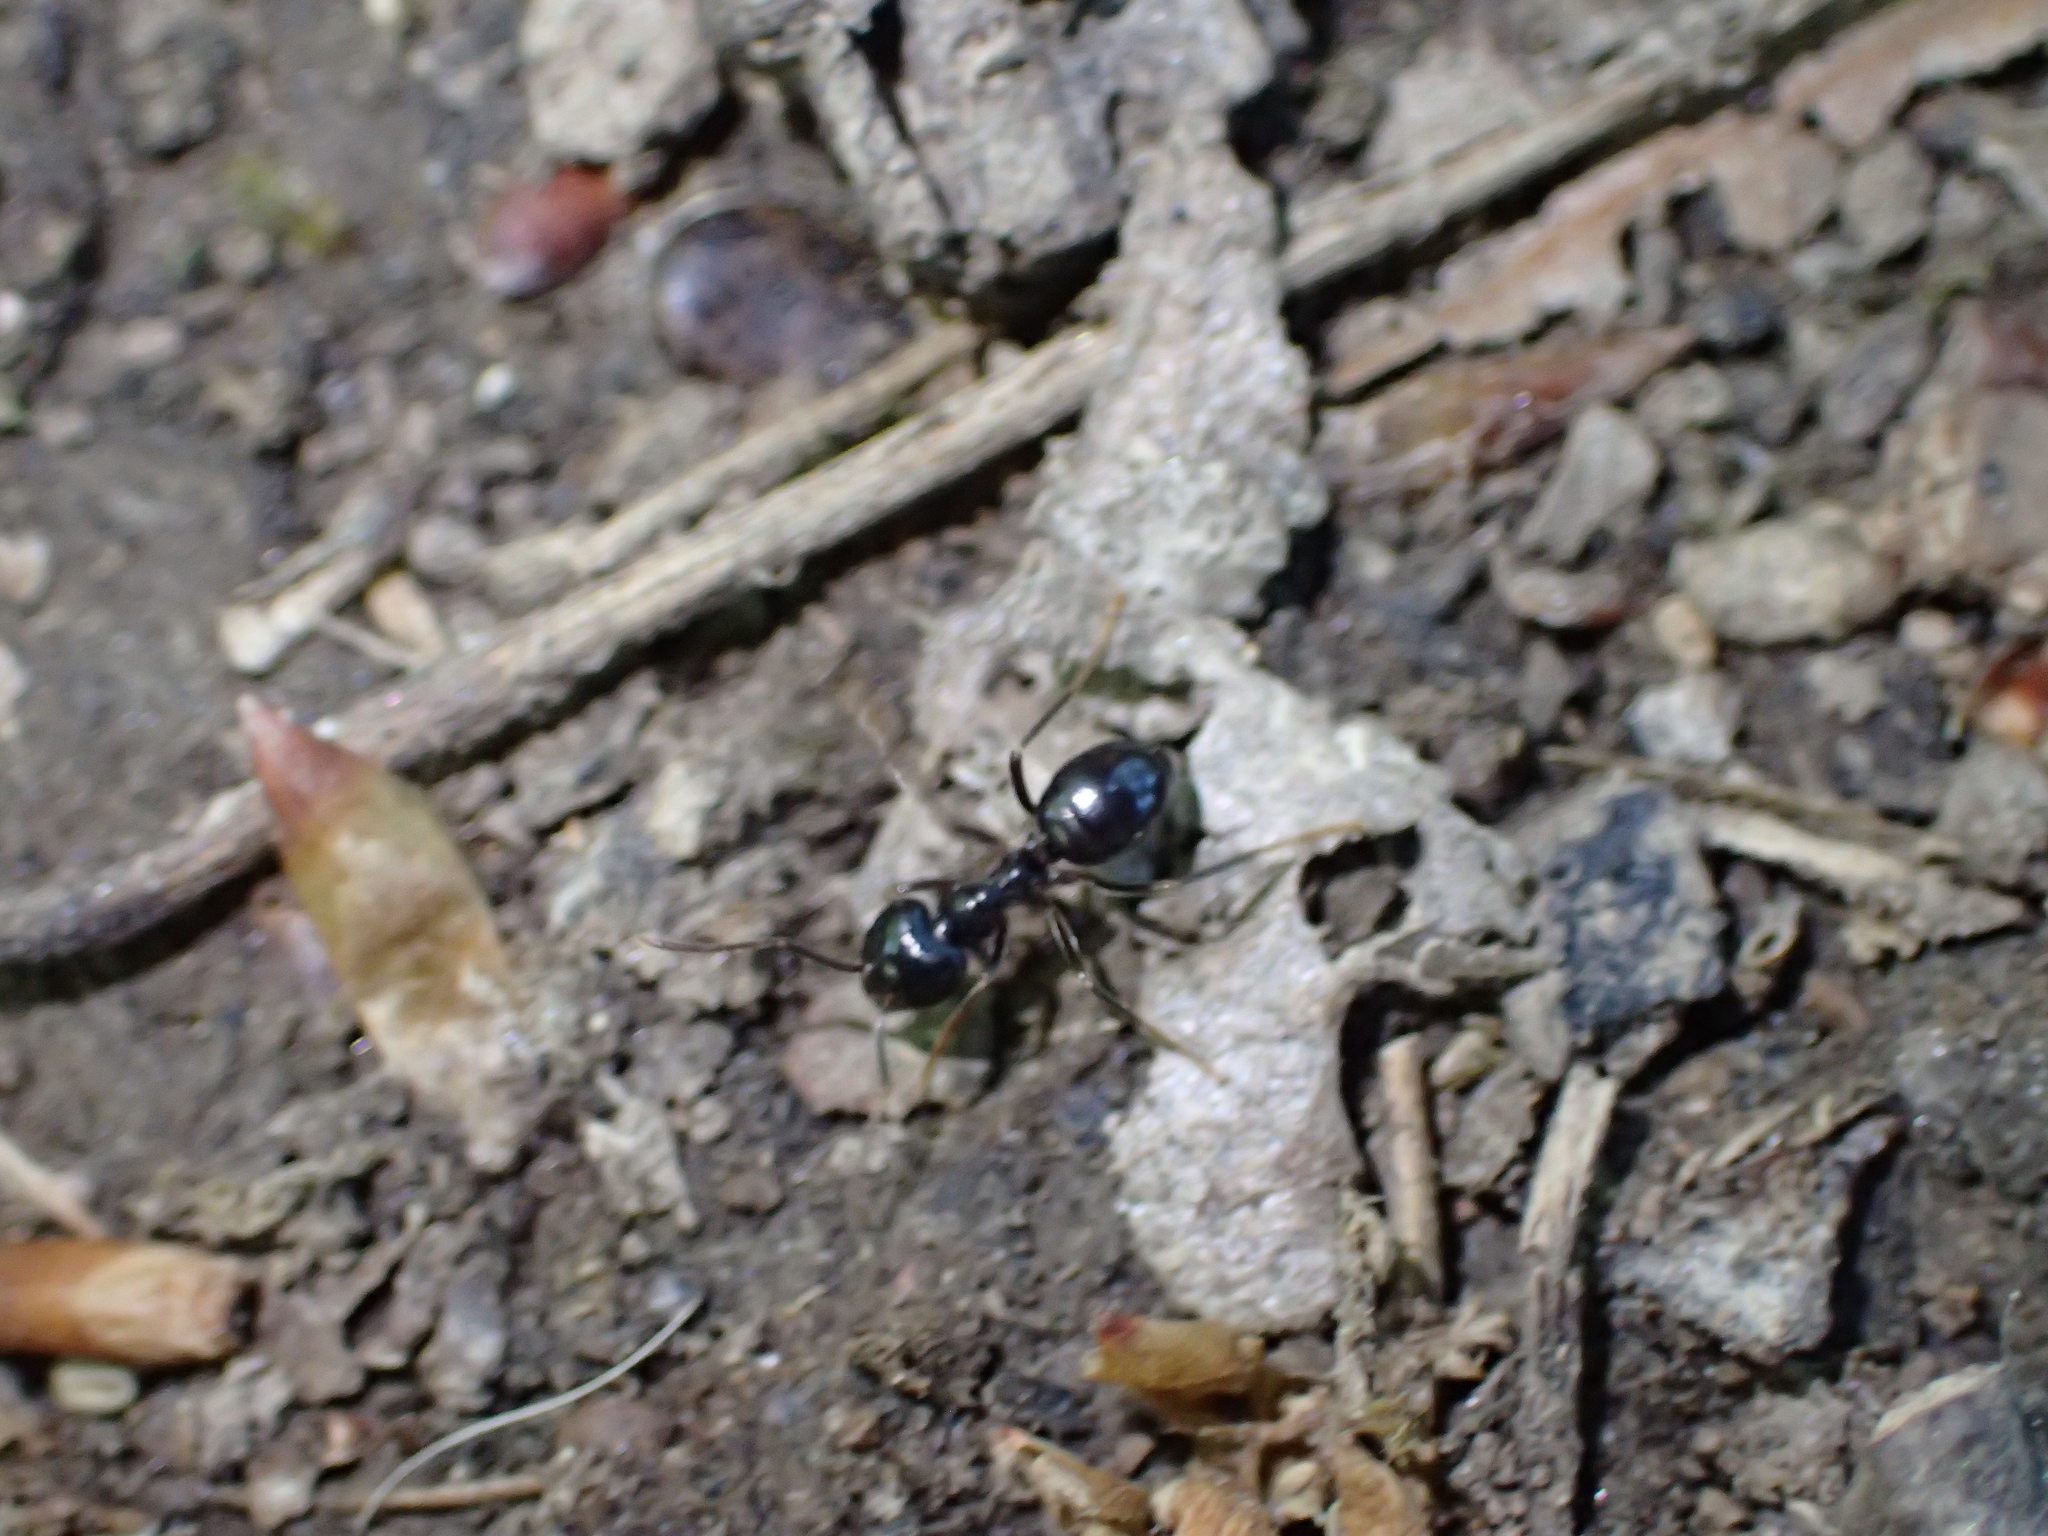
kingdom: Animalia
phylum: Arthropoda
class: Insecta
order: Hymenoptera
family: Formicidae
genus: Lasius
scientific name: Lasius fuliginosus
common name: Jet ant
